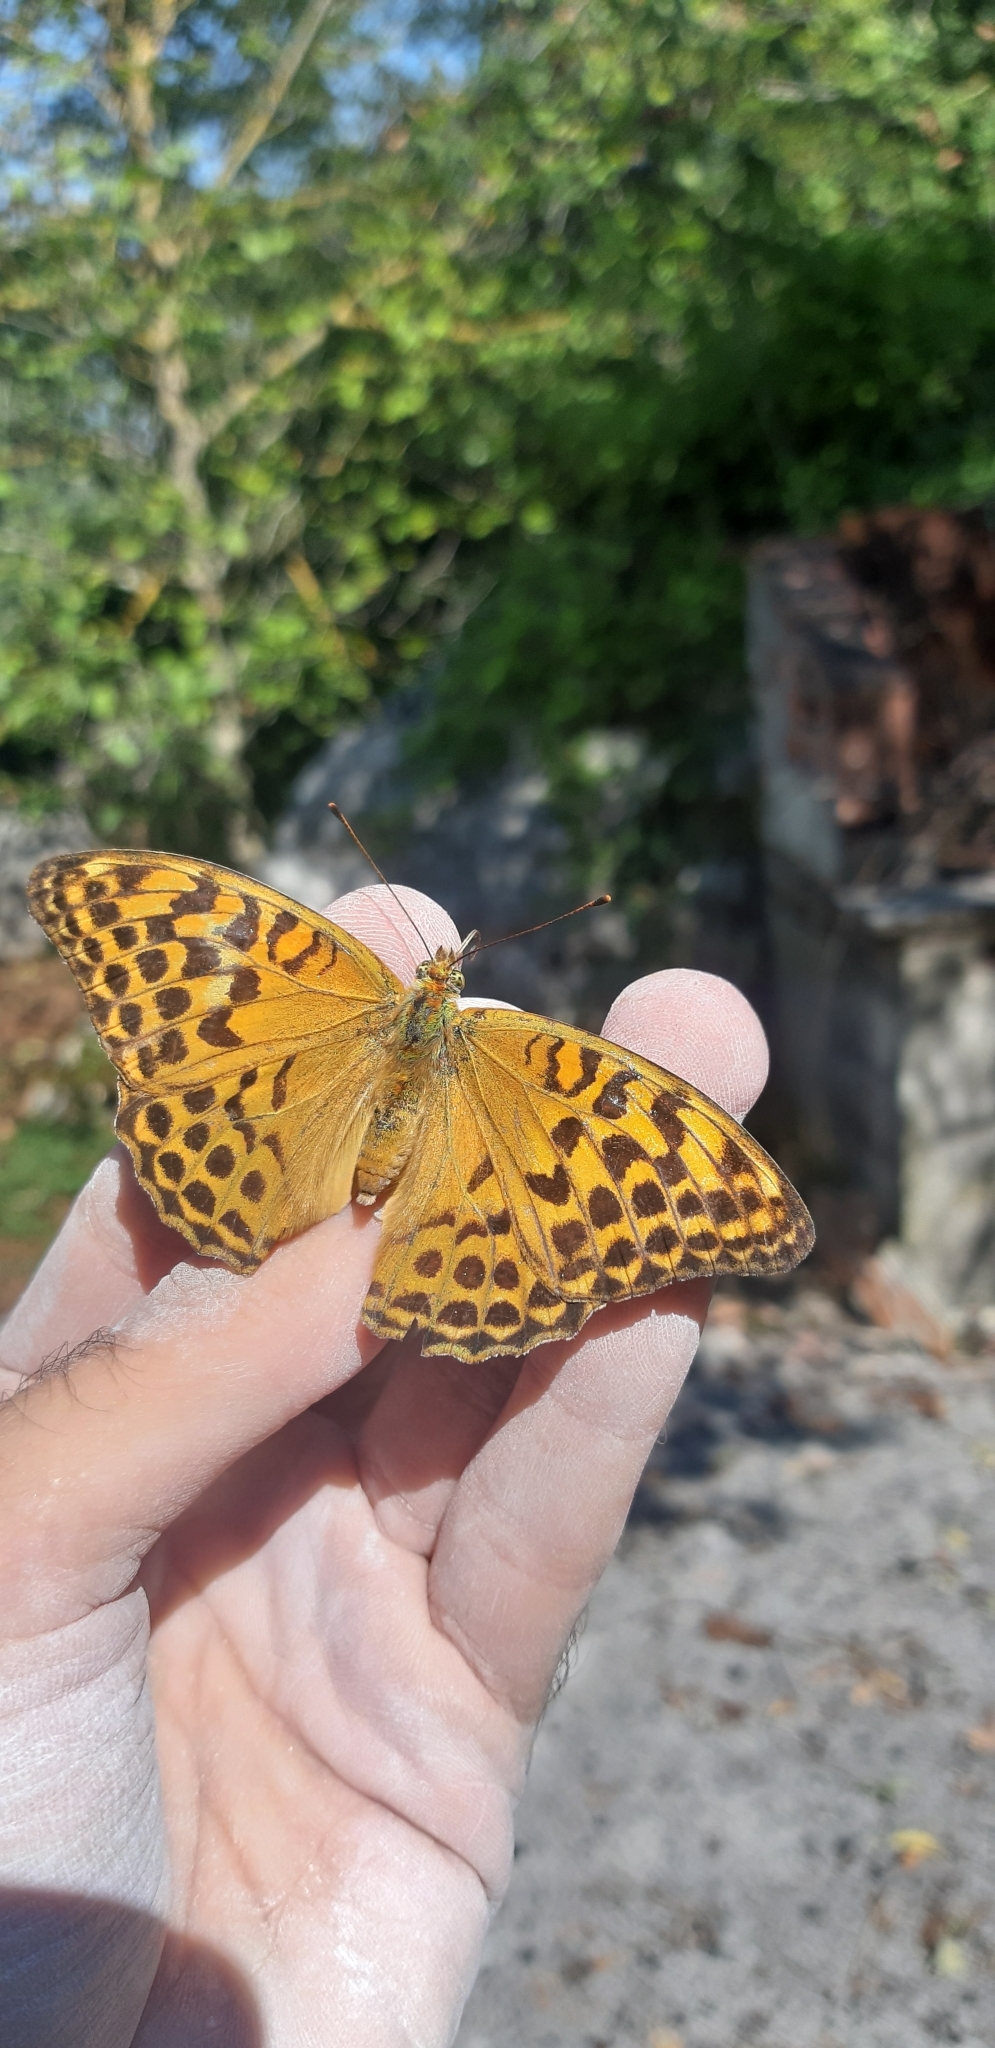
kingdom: Animalia
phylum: Arthropoda
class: Insecta
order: Lepidoptera
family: Nymphalidae
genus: Argynnis
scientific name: Argynnis paphia
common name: Silver-washed fritillary
